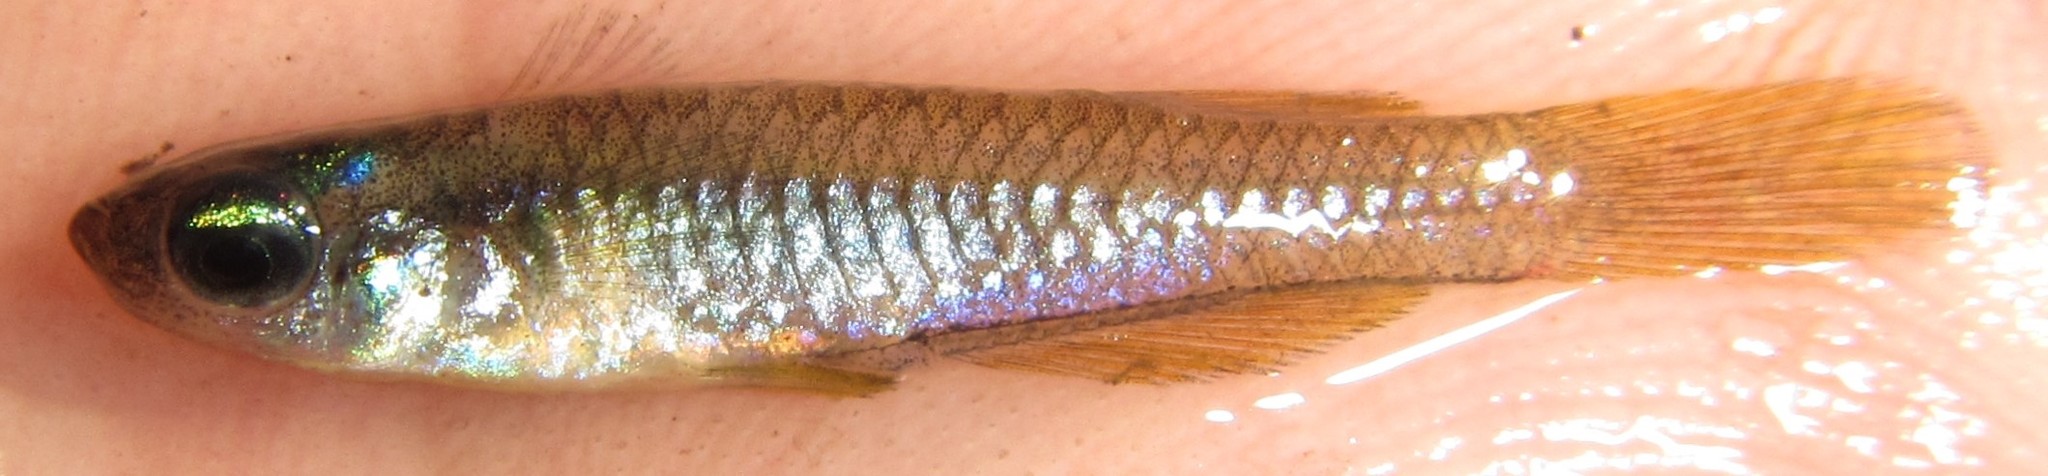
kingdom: Animalia
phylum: Chordata
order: Cyprinodontiformes
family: Poeciliidae
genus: Micropanchax
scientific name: Micropanchax johnstoni
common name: Johnston's topminnow
